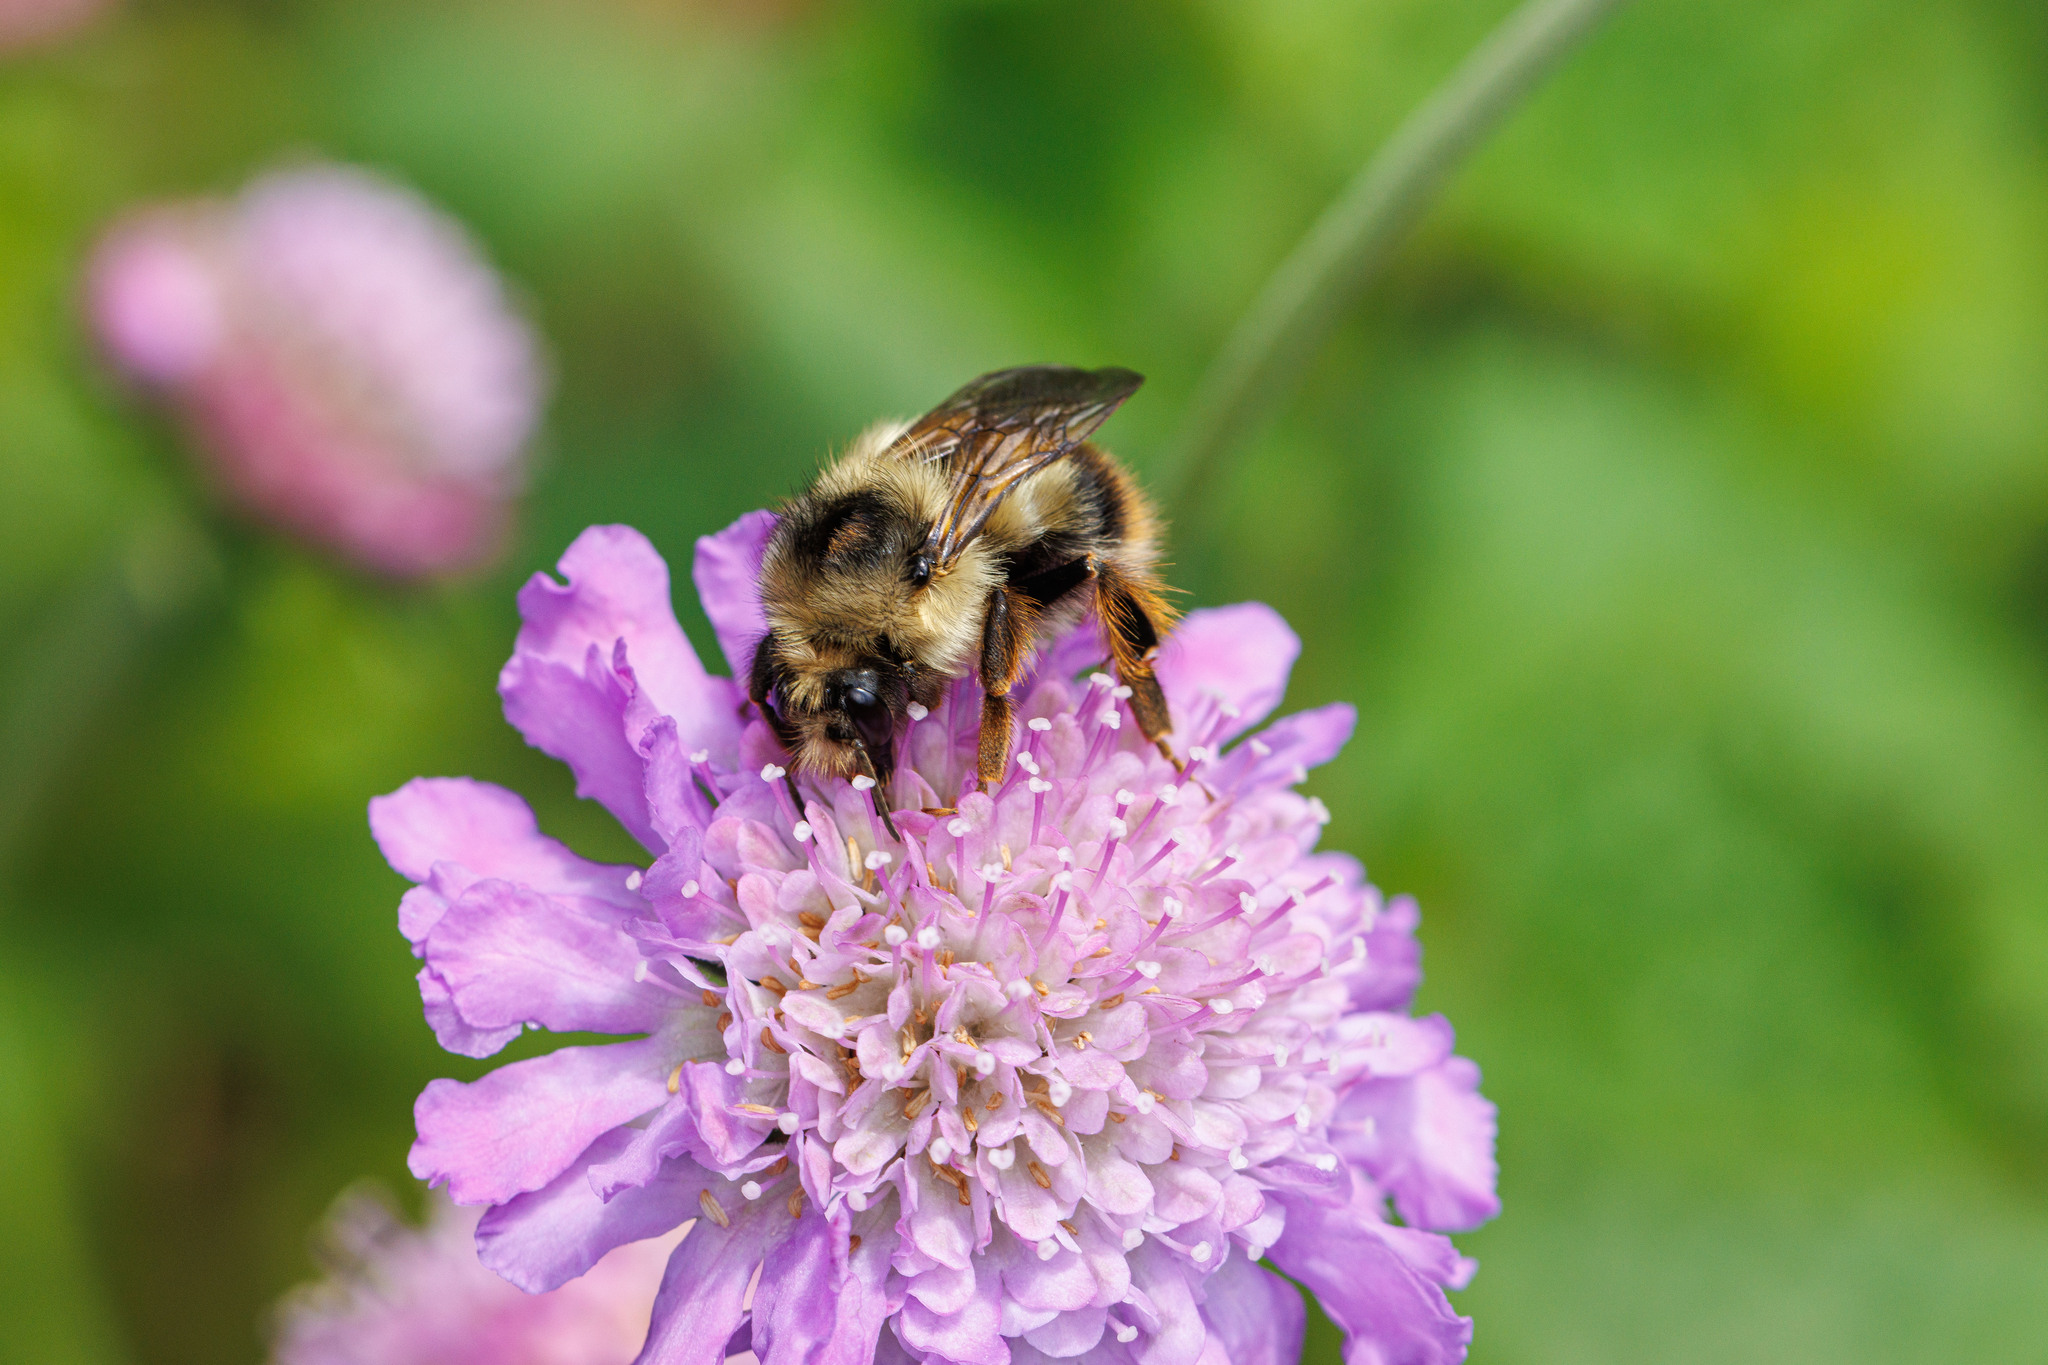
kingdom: Animalia
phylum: Arthropoda
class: Insecta
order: Hymenoptera
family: Apidae
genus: Bombus
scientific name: Bombus mixtus
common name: Fuzzy-horned bumble bee
